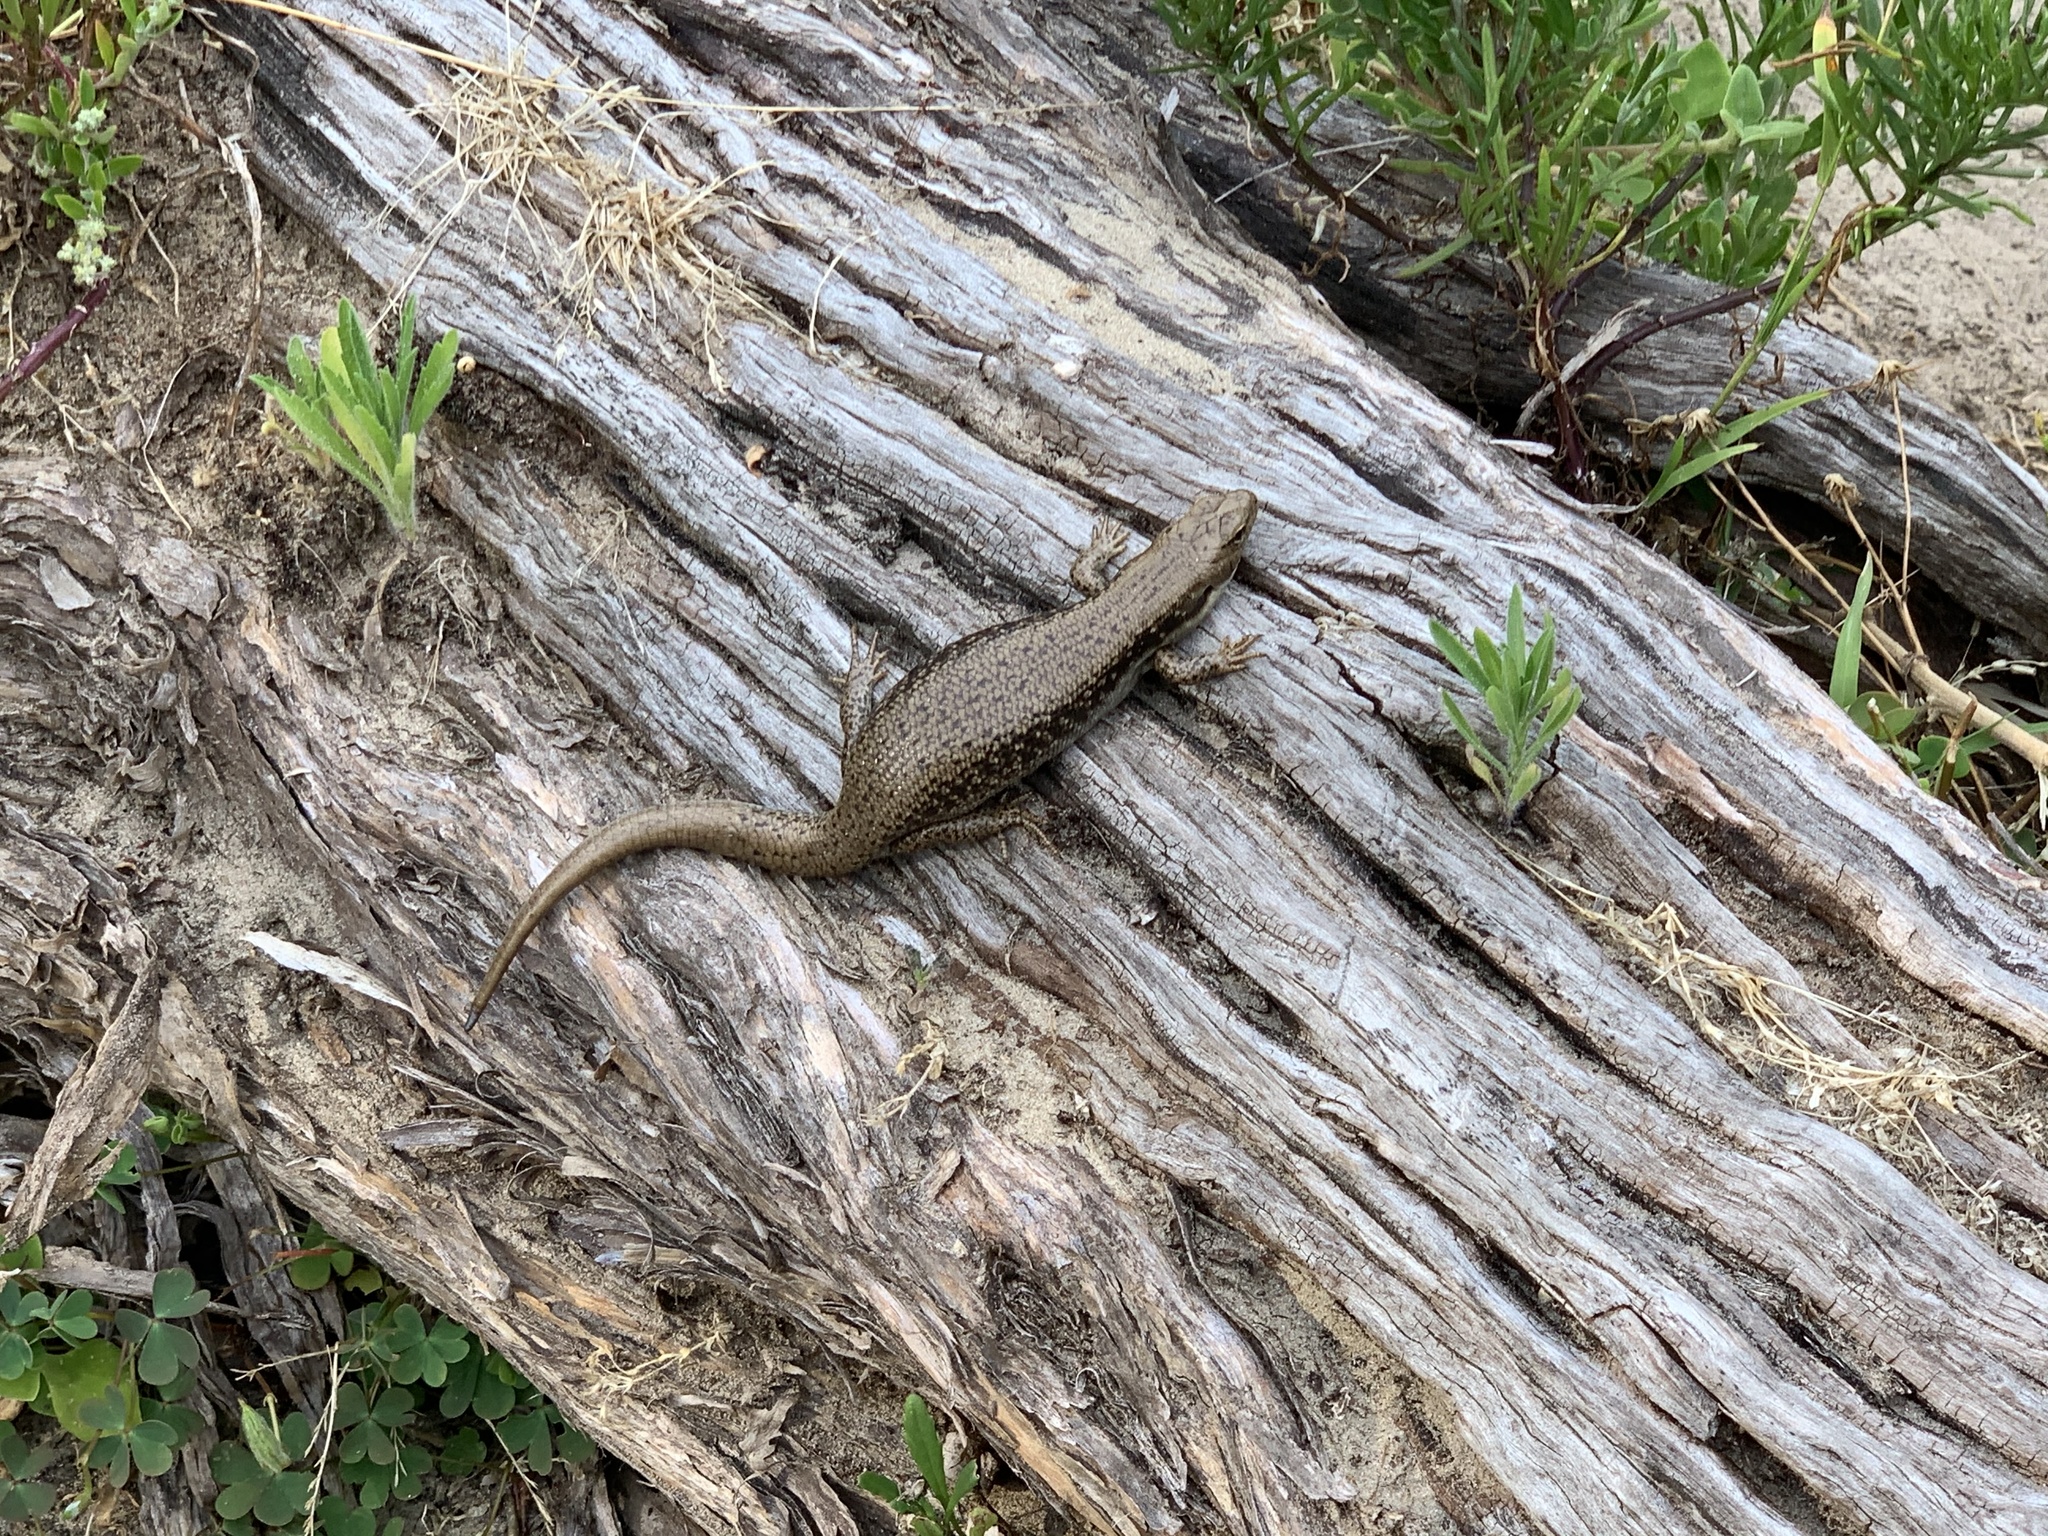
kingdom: Animalia
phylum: Chordata
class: Squamata
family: Scincidae
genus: Eulamprus
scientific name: Eulamprus tympanum
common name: Cool-temperate water-skink
